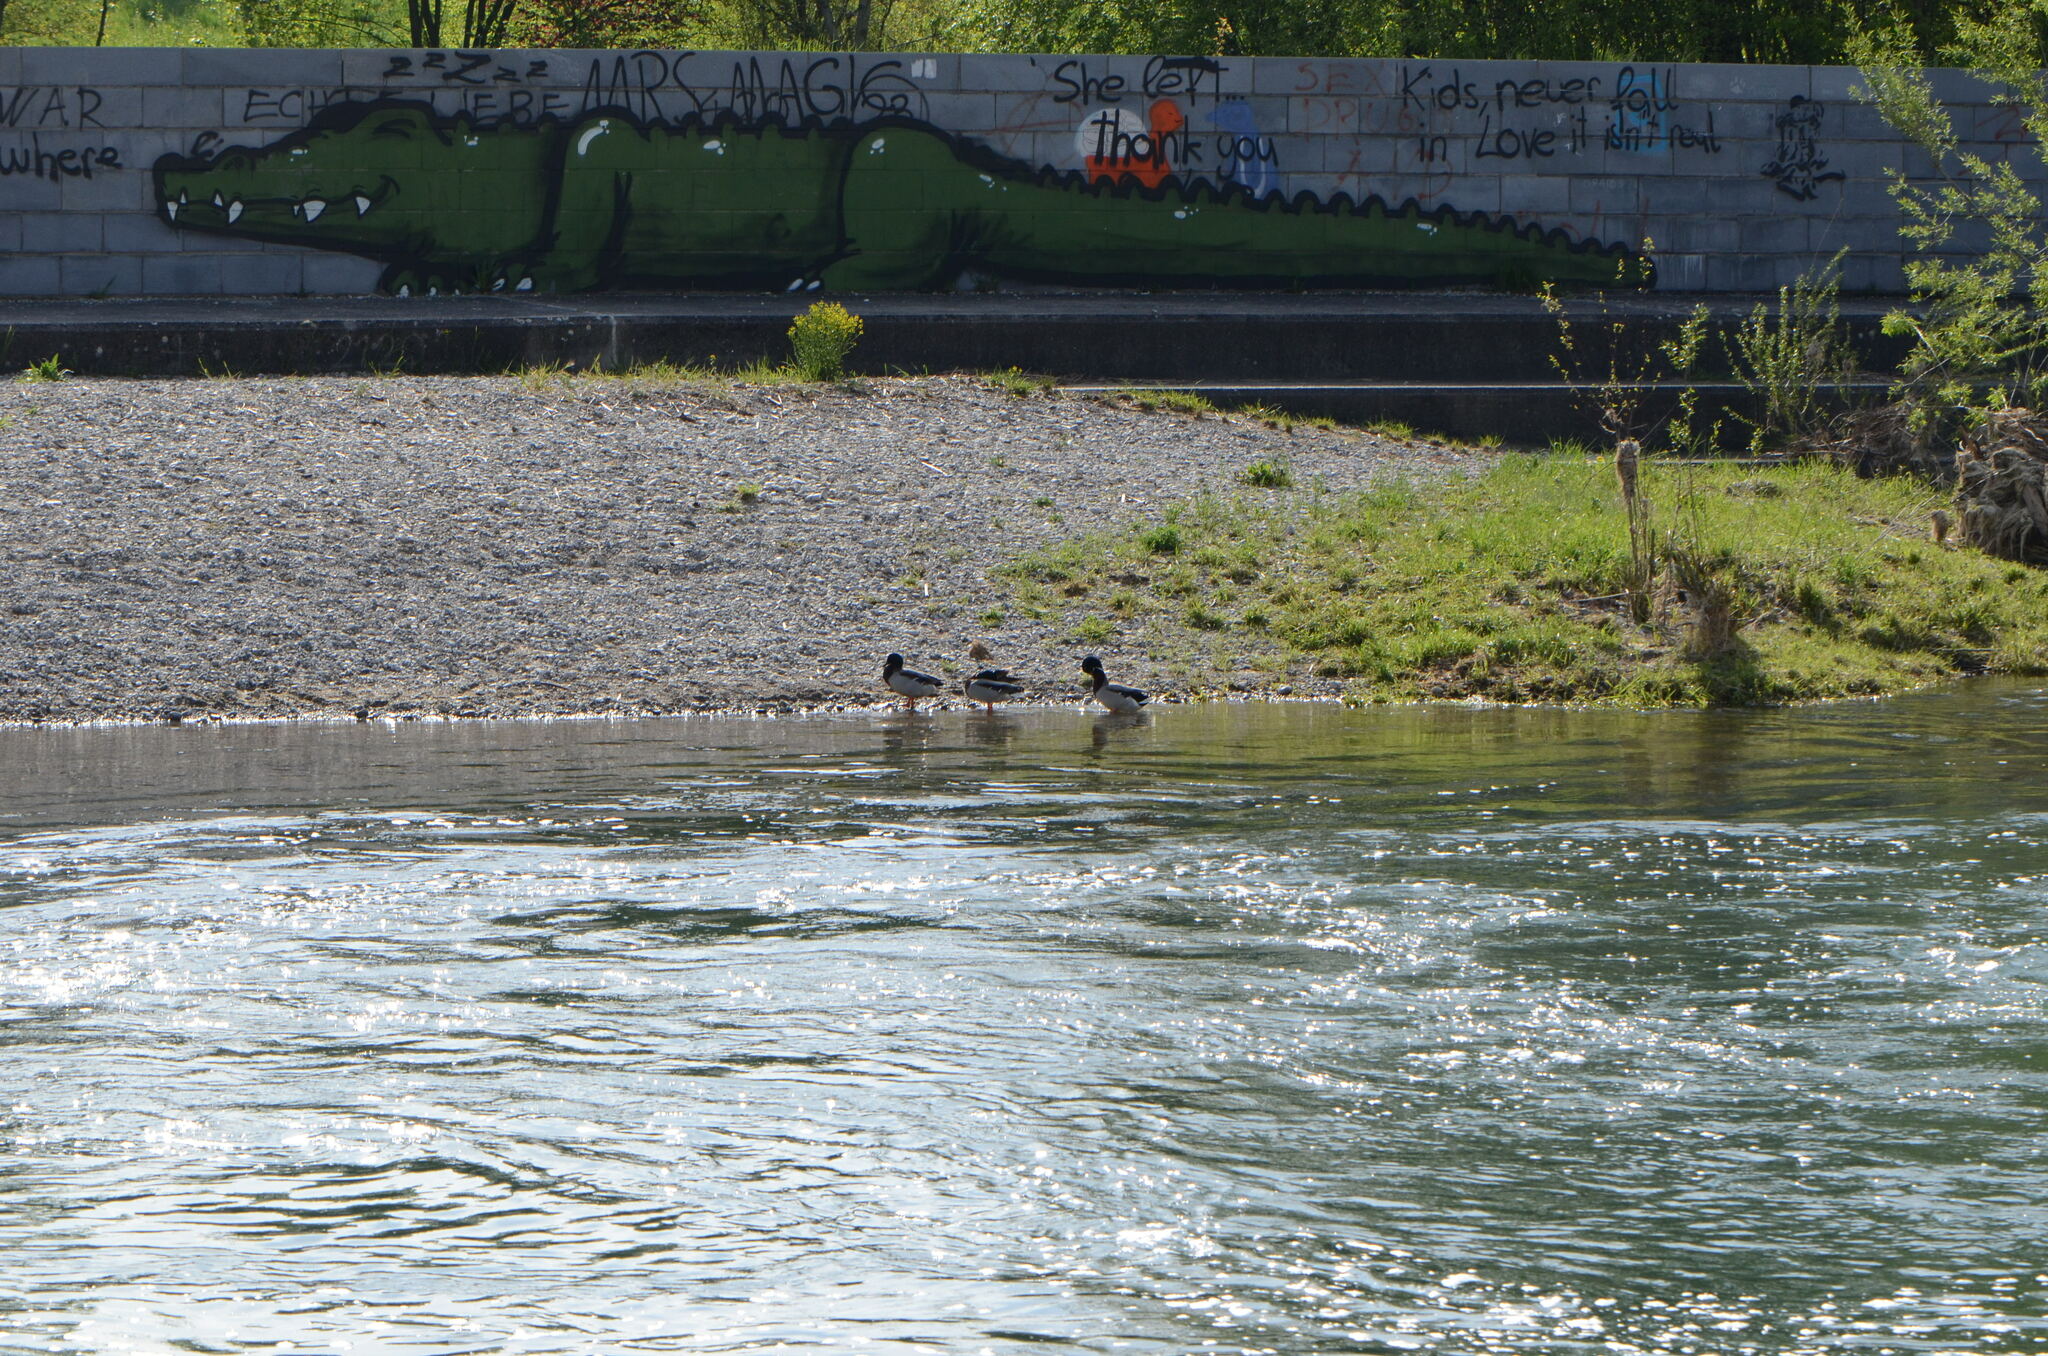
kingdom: Animalia
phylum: Chordata
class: Aves
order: Anseriformes
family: Anatidae
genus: Anas
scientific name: Anas platyrhynchos
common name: Mallard
